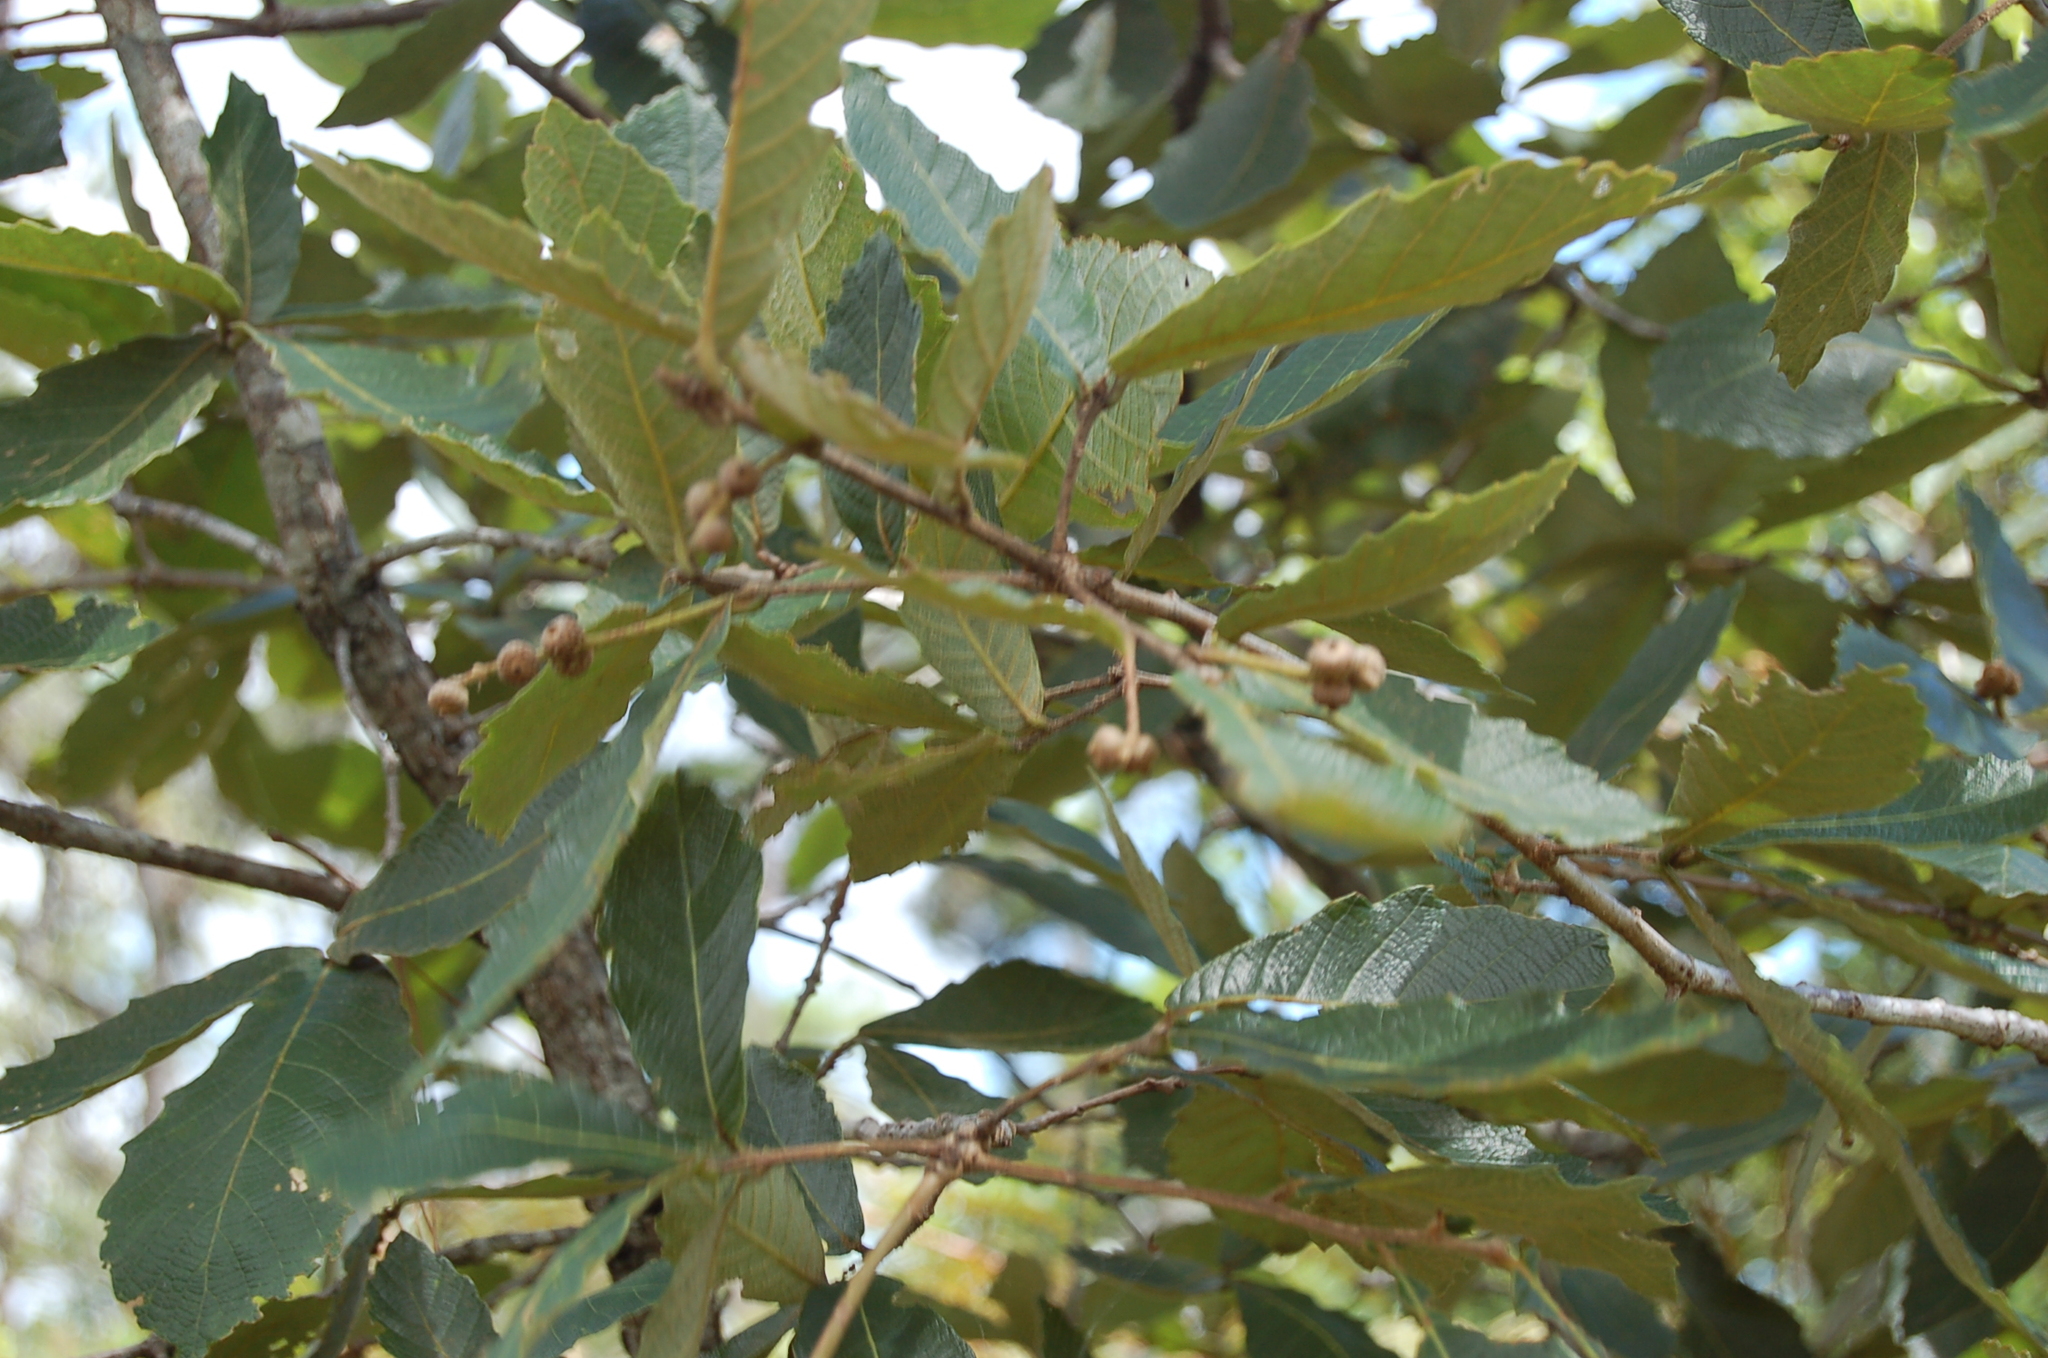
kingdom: Plantae
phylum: Tracheophyta
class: Magnoliopsida
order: Fagales
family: Fagaceae
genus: Quercus
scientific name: Quercus peduncularis
